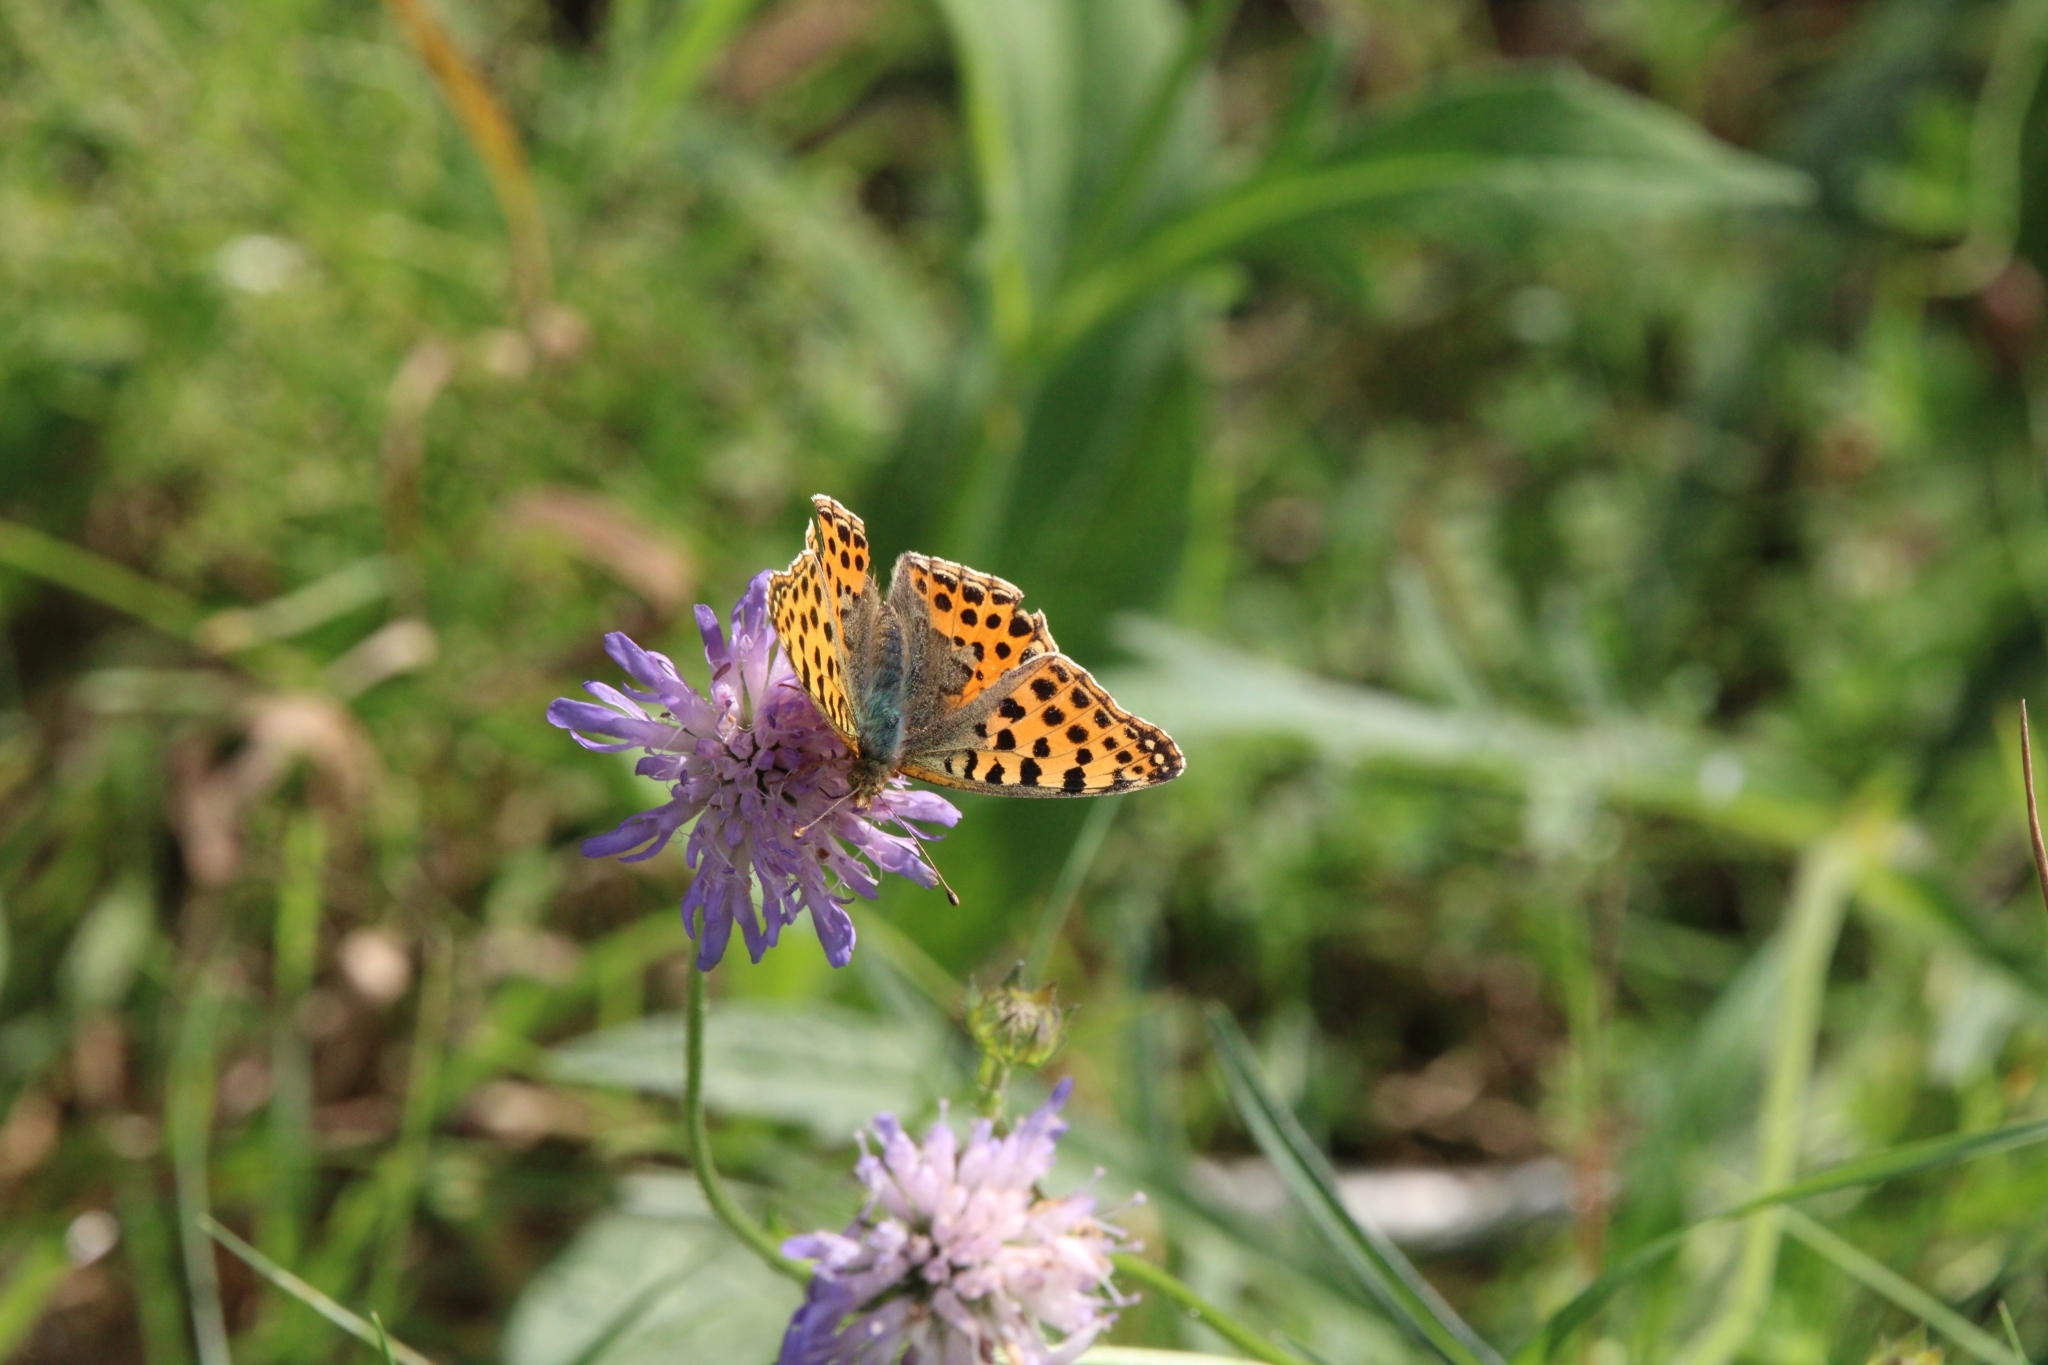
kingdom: Animalia
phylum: Arthropoda
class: Insecta
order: Lepidoptera
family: Nymphalidae
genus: Issoria
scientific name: Issoria lathonia
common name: Queen of spain fritillary
